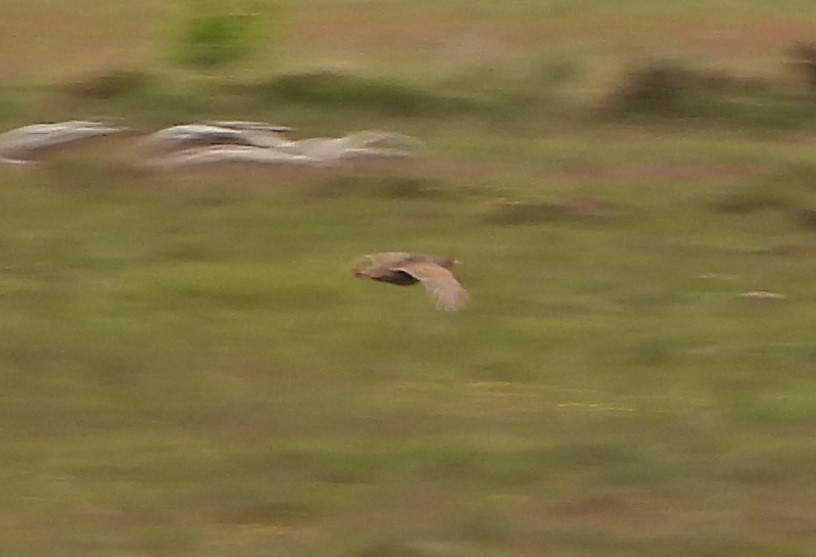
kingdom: Animalia
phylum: Chordata
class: Aves
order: Galliformes
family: Phasianidae
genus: Perdix
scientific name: Perdix perdix
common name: Grey partridge
